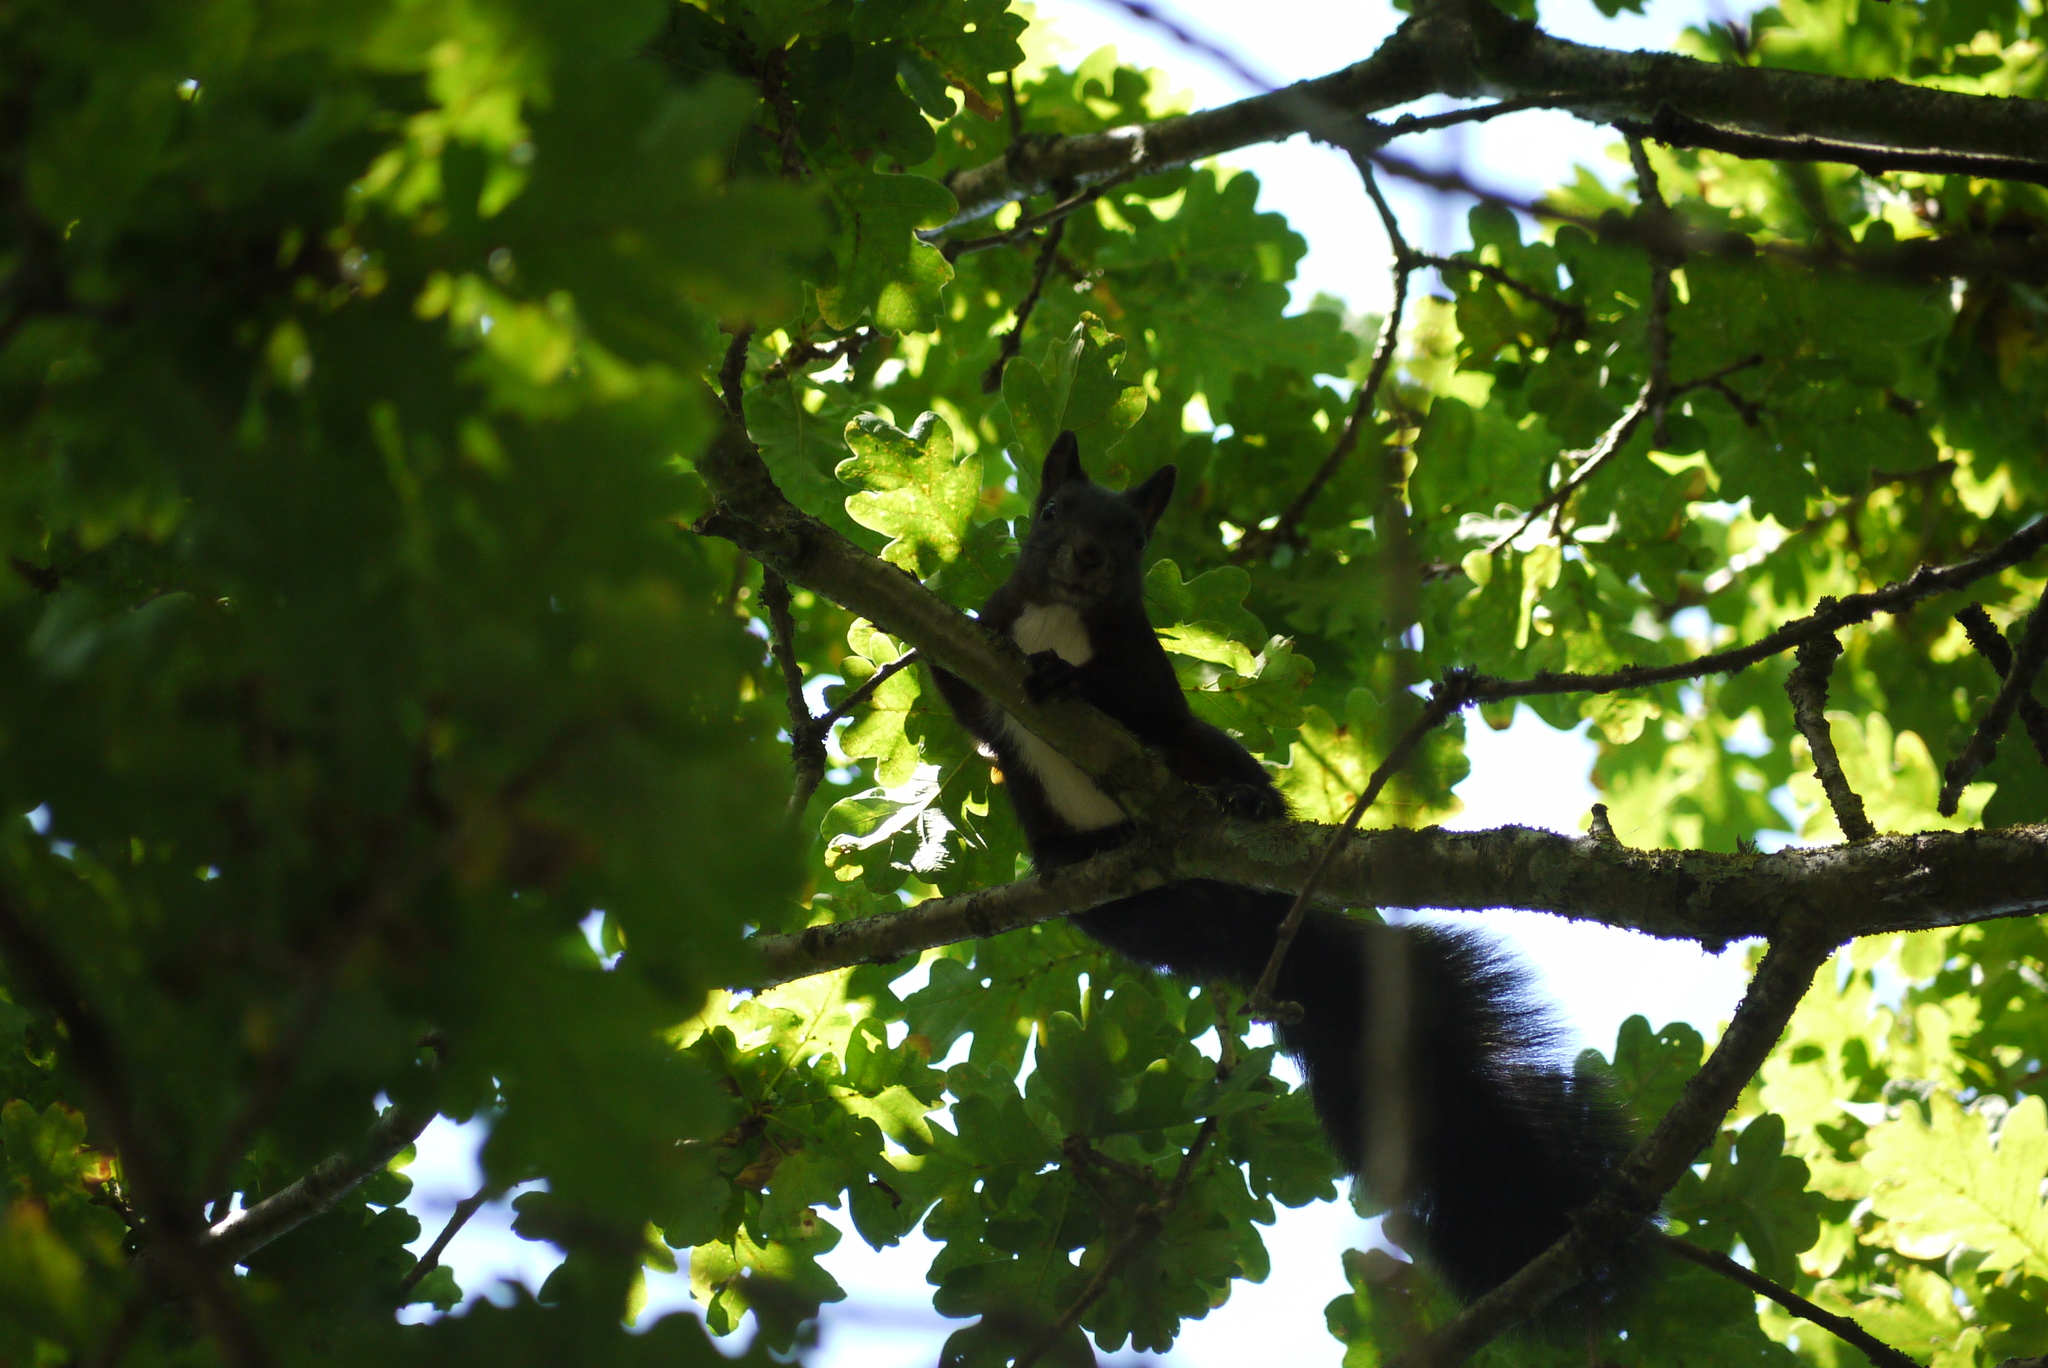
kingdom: Animalia
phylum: Chordata
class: Mammalia
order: Rodentia
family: Sciuridae
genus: Sciurus
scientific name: Sciurus vulgaris
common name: Eurasian red squirrel
